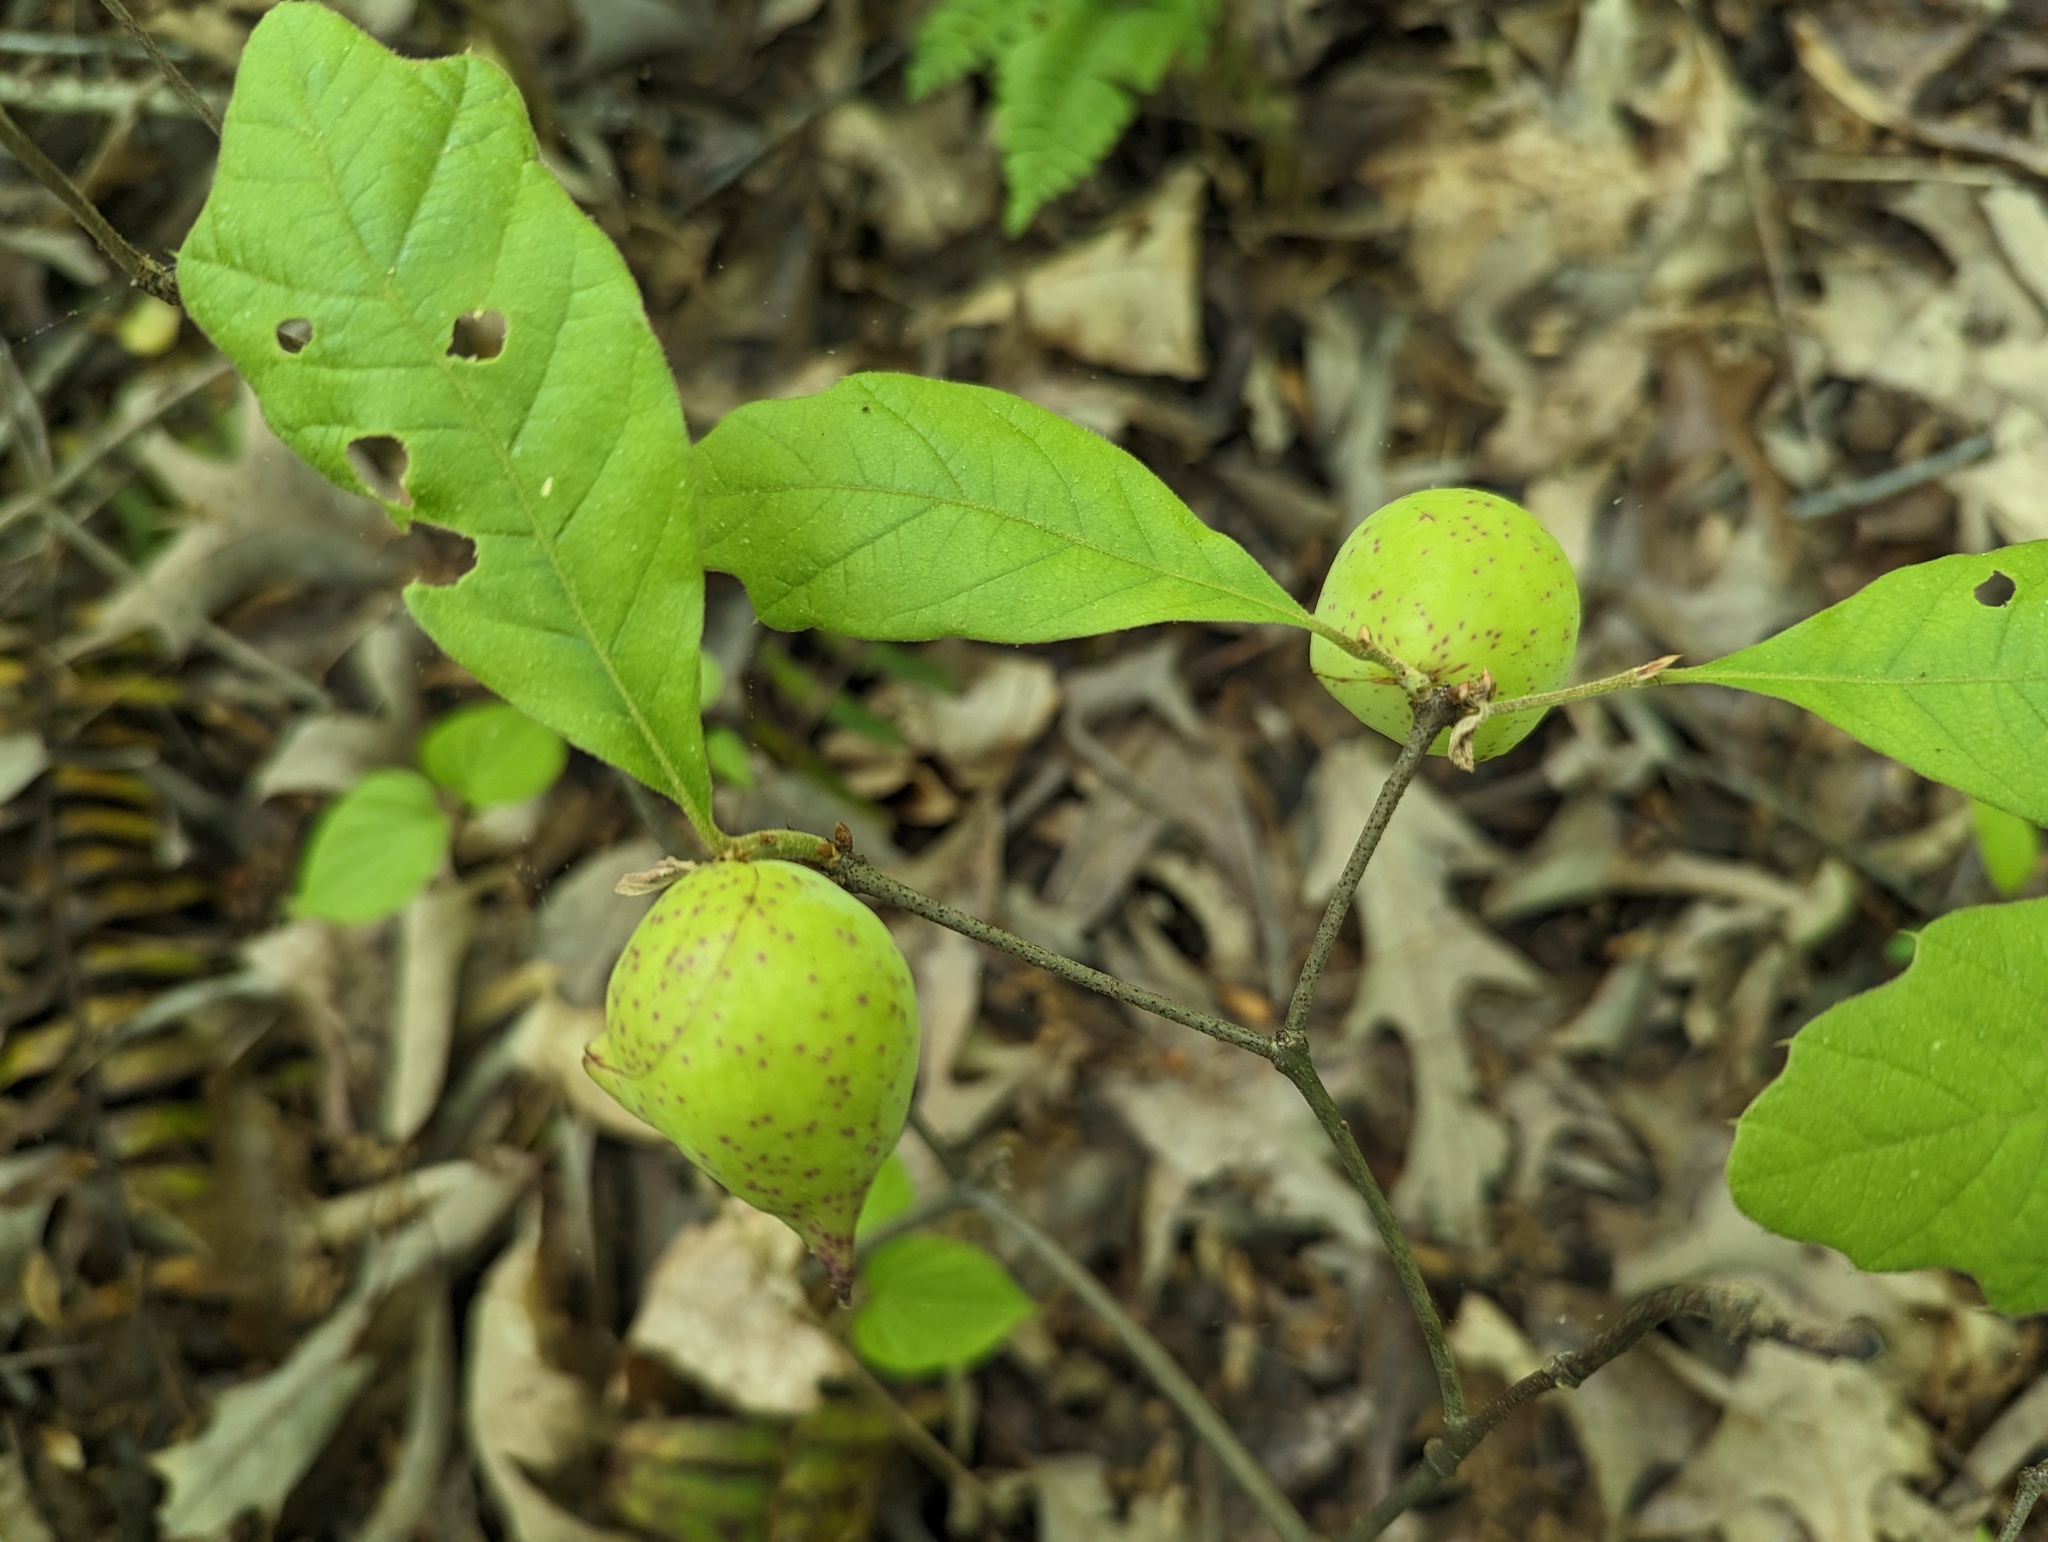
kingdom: Animalia
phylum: Arthropoda
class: Insecta
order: Hymenoptera
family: Cynipidae
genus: Amphibolips
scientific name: Amphibolips
